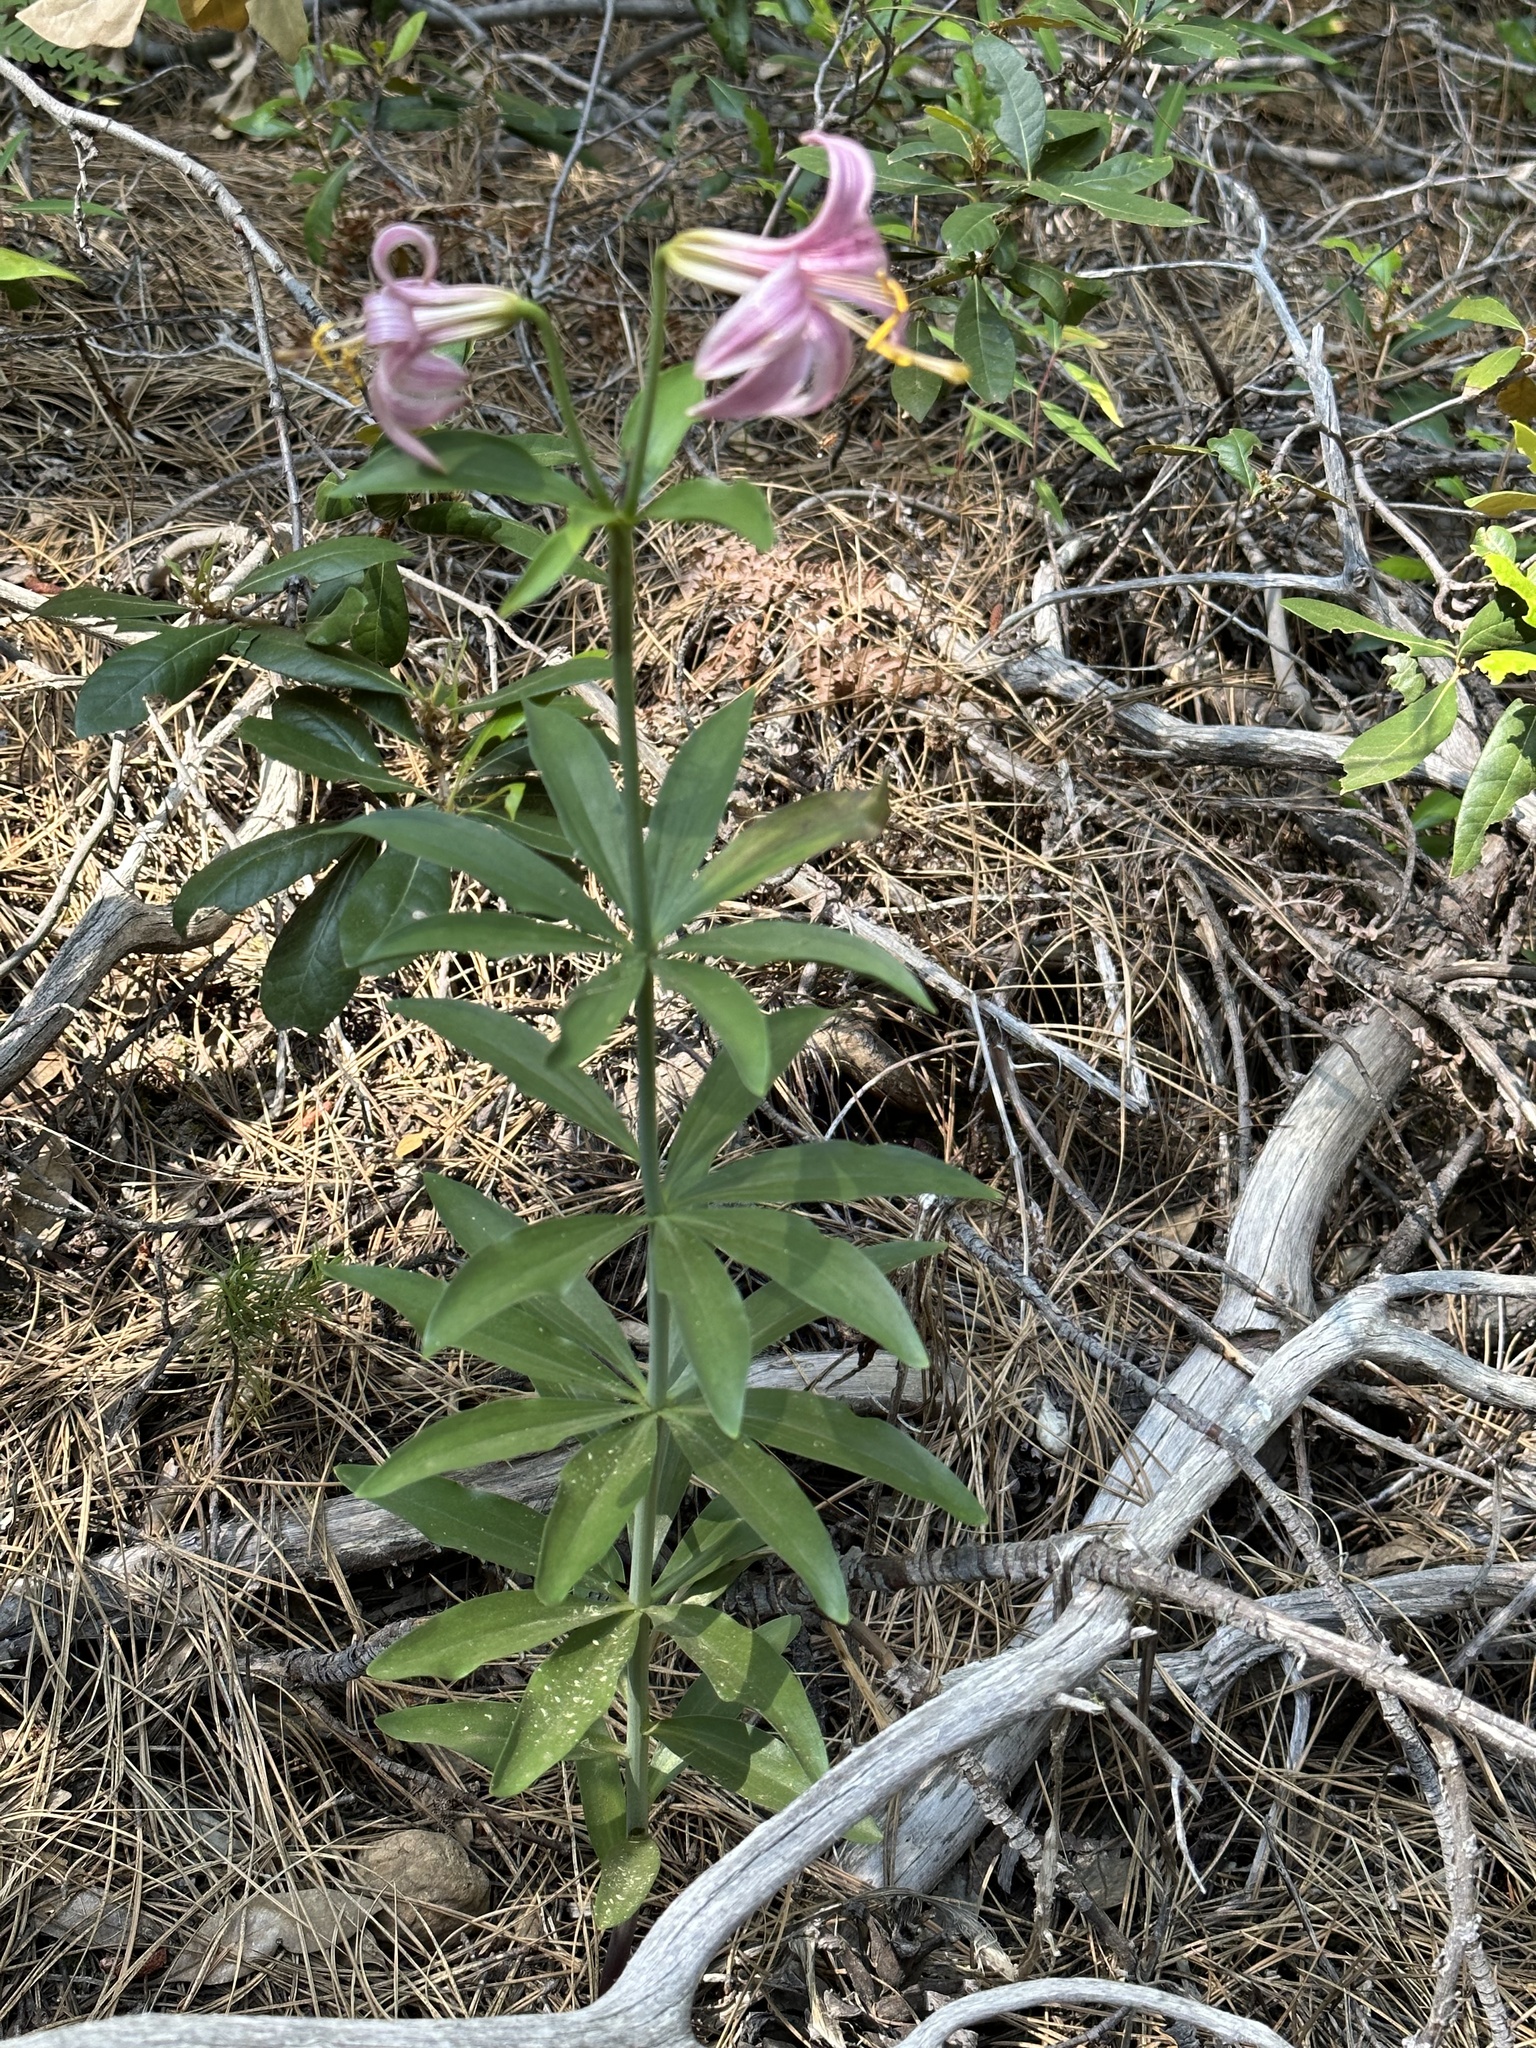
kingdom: Plantae
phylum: Tracheophyta
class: Liliopsida
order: Liliales
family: Liliaceae
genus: Lilium
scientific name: Lilium washingtonianum
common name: Washington lily
